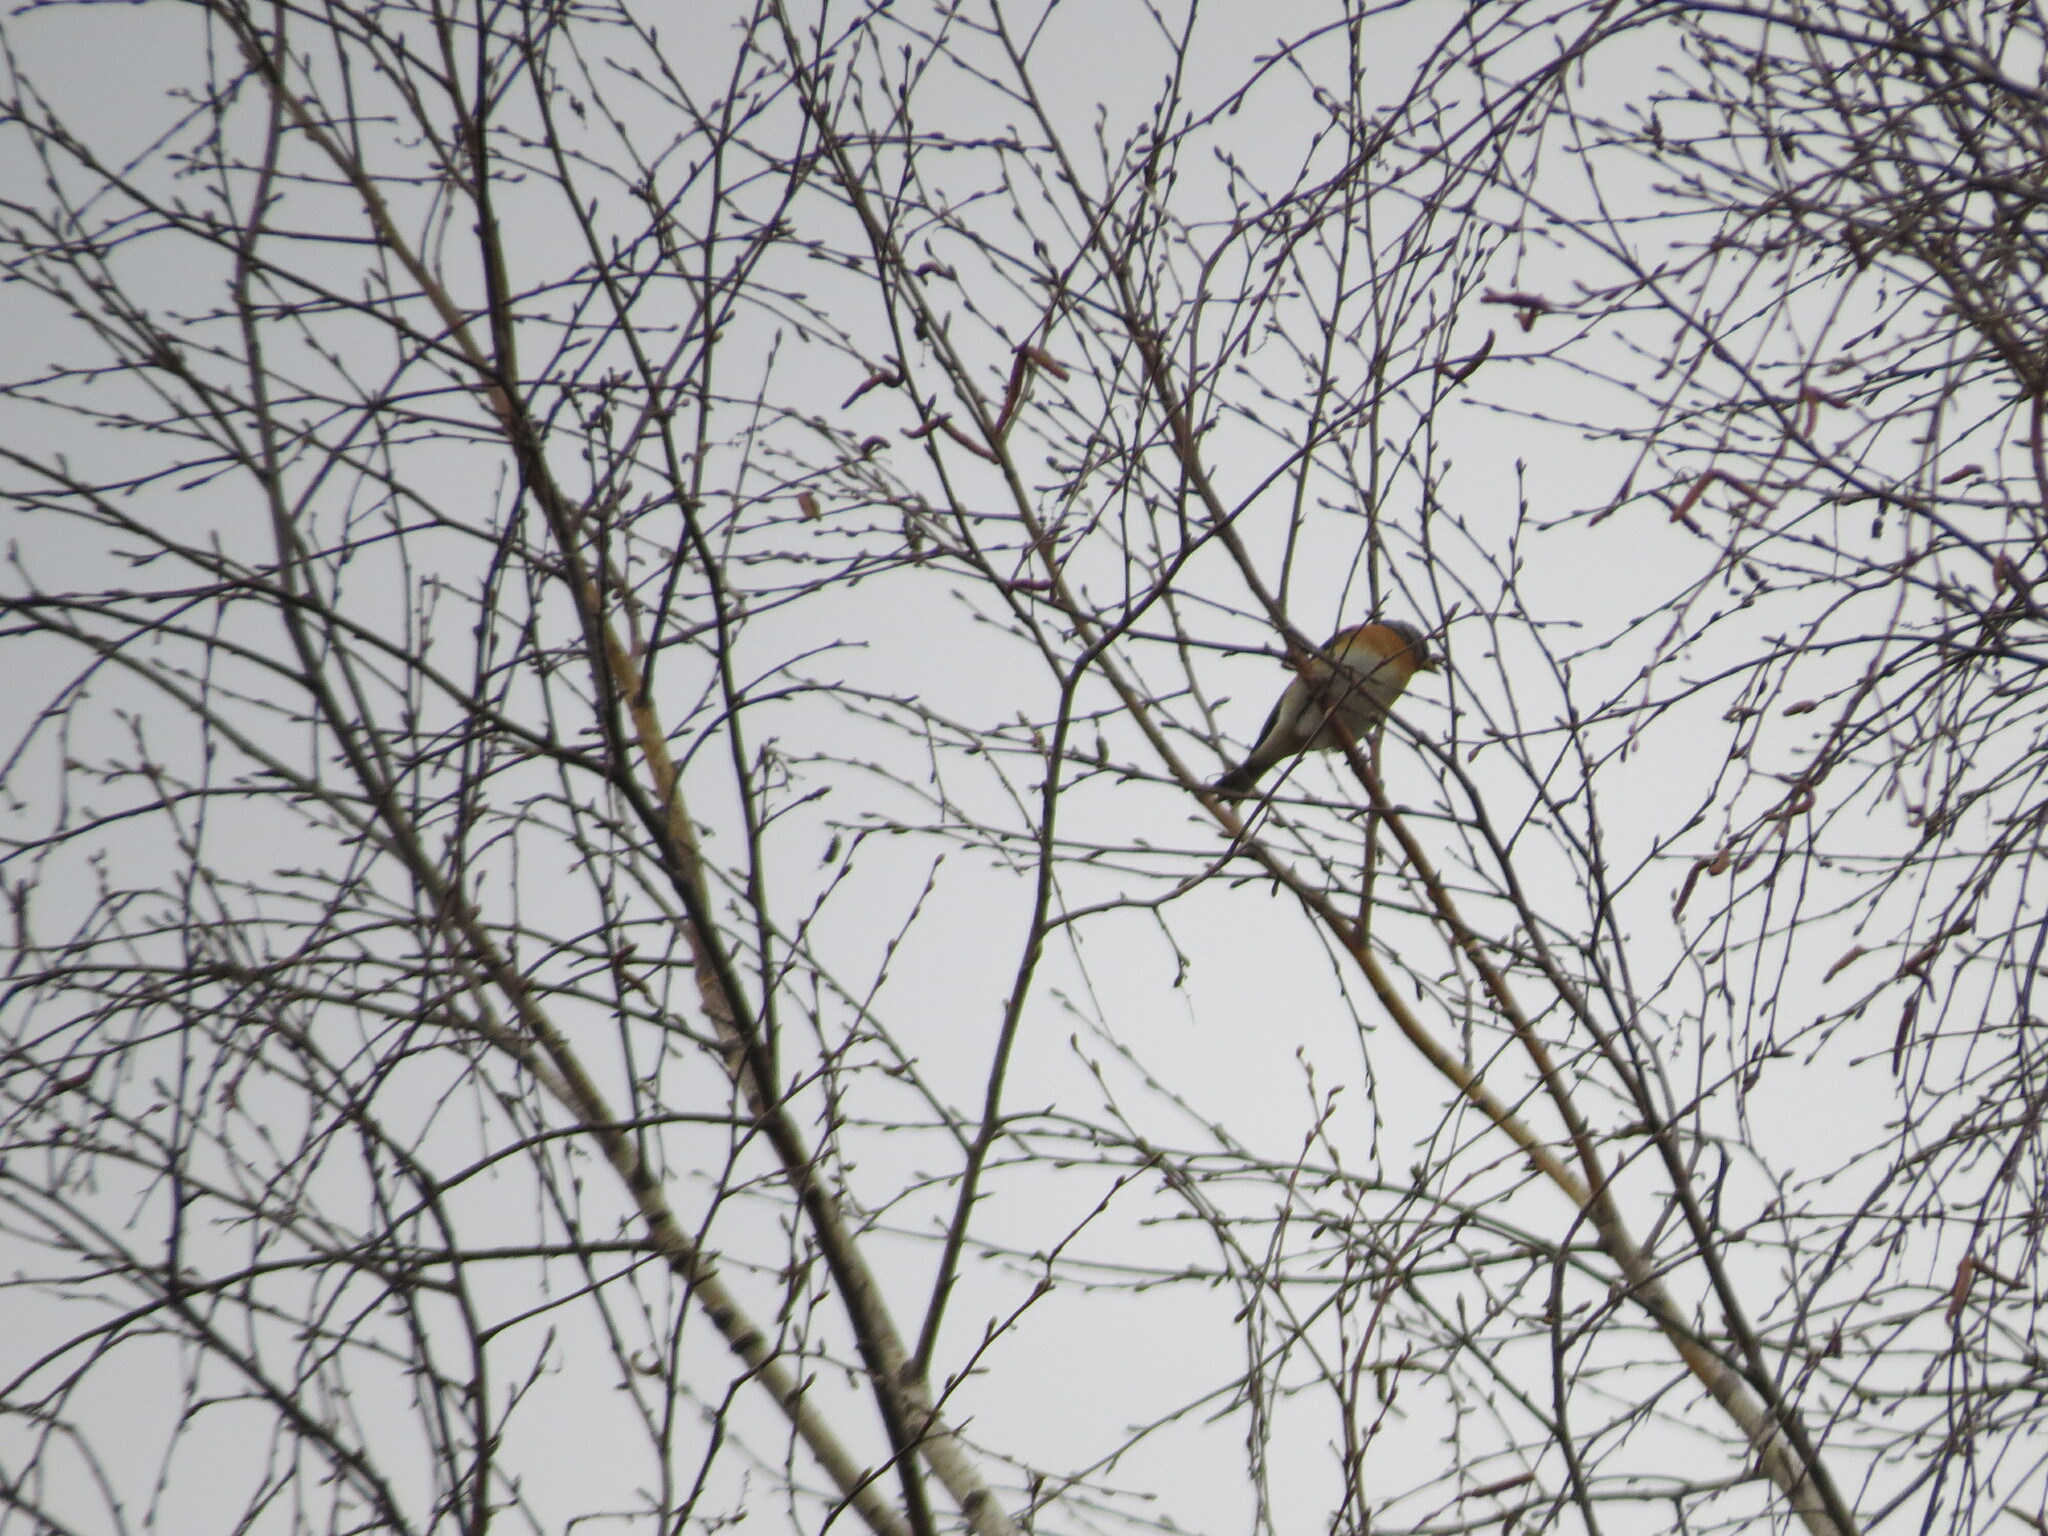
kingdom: Animalia
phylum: Chordata
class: Aves
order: Passeriformes
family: Fringillidae
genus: Fringilla
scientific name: Fringilla montifringilla
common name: Brambling
